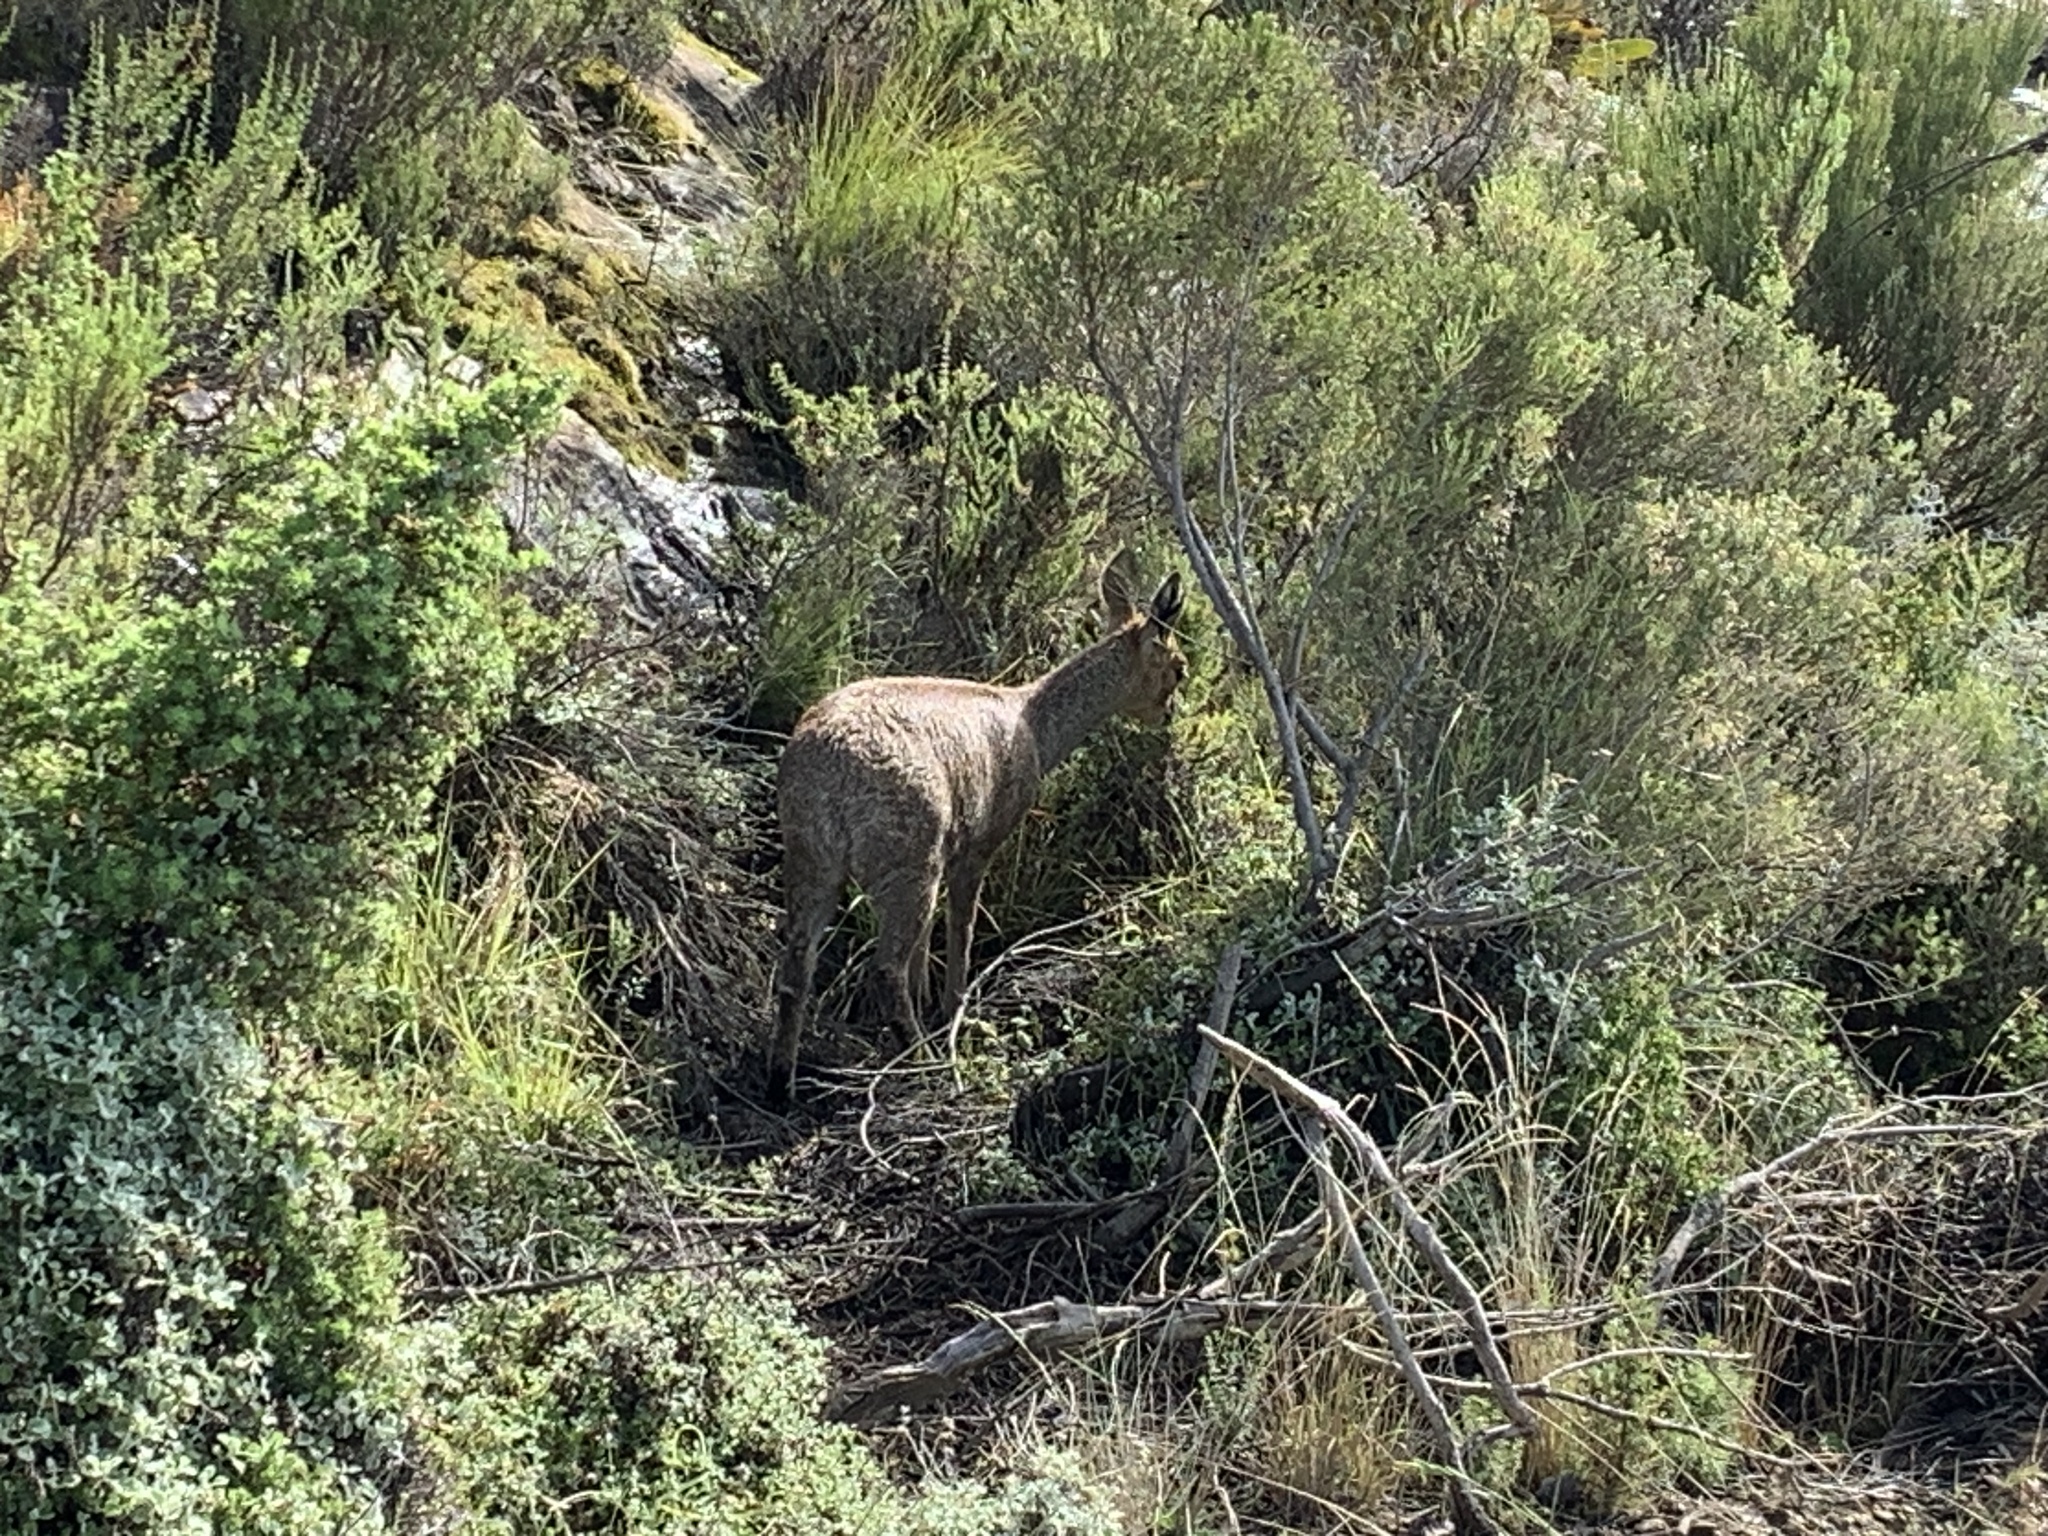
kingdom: Animalia
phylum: Chordata
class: Mammalia
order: Artiodactyla
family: Bovidae
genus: Oreotragus
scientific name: Oreotragus oreotragus
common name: Klipspringer
